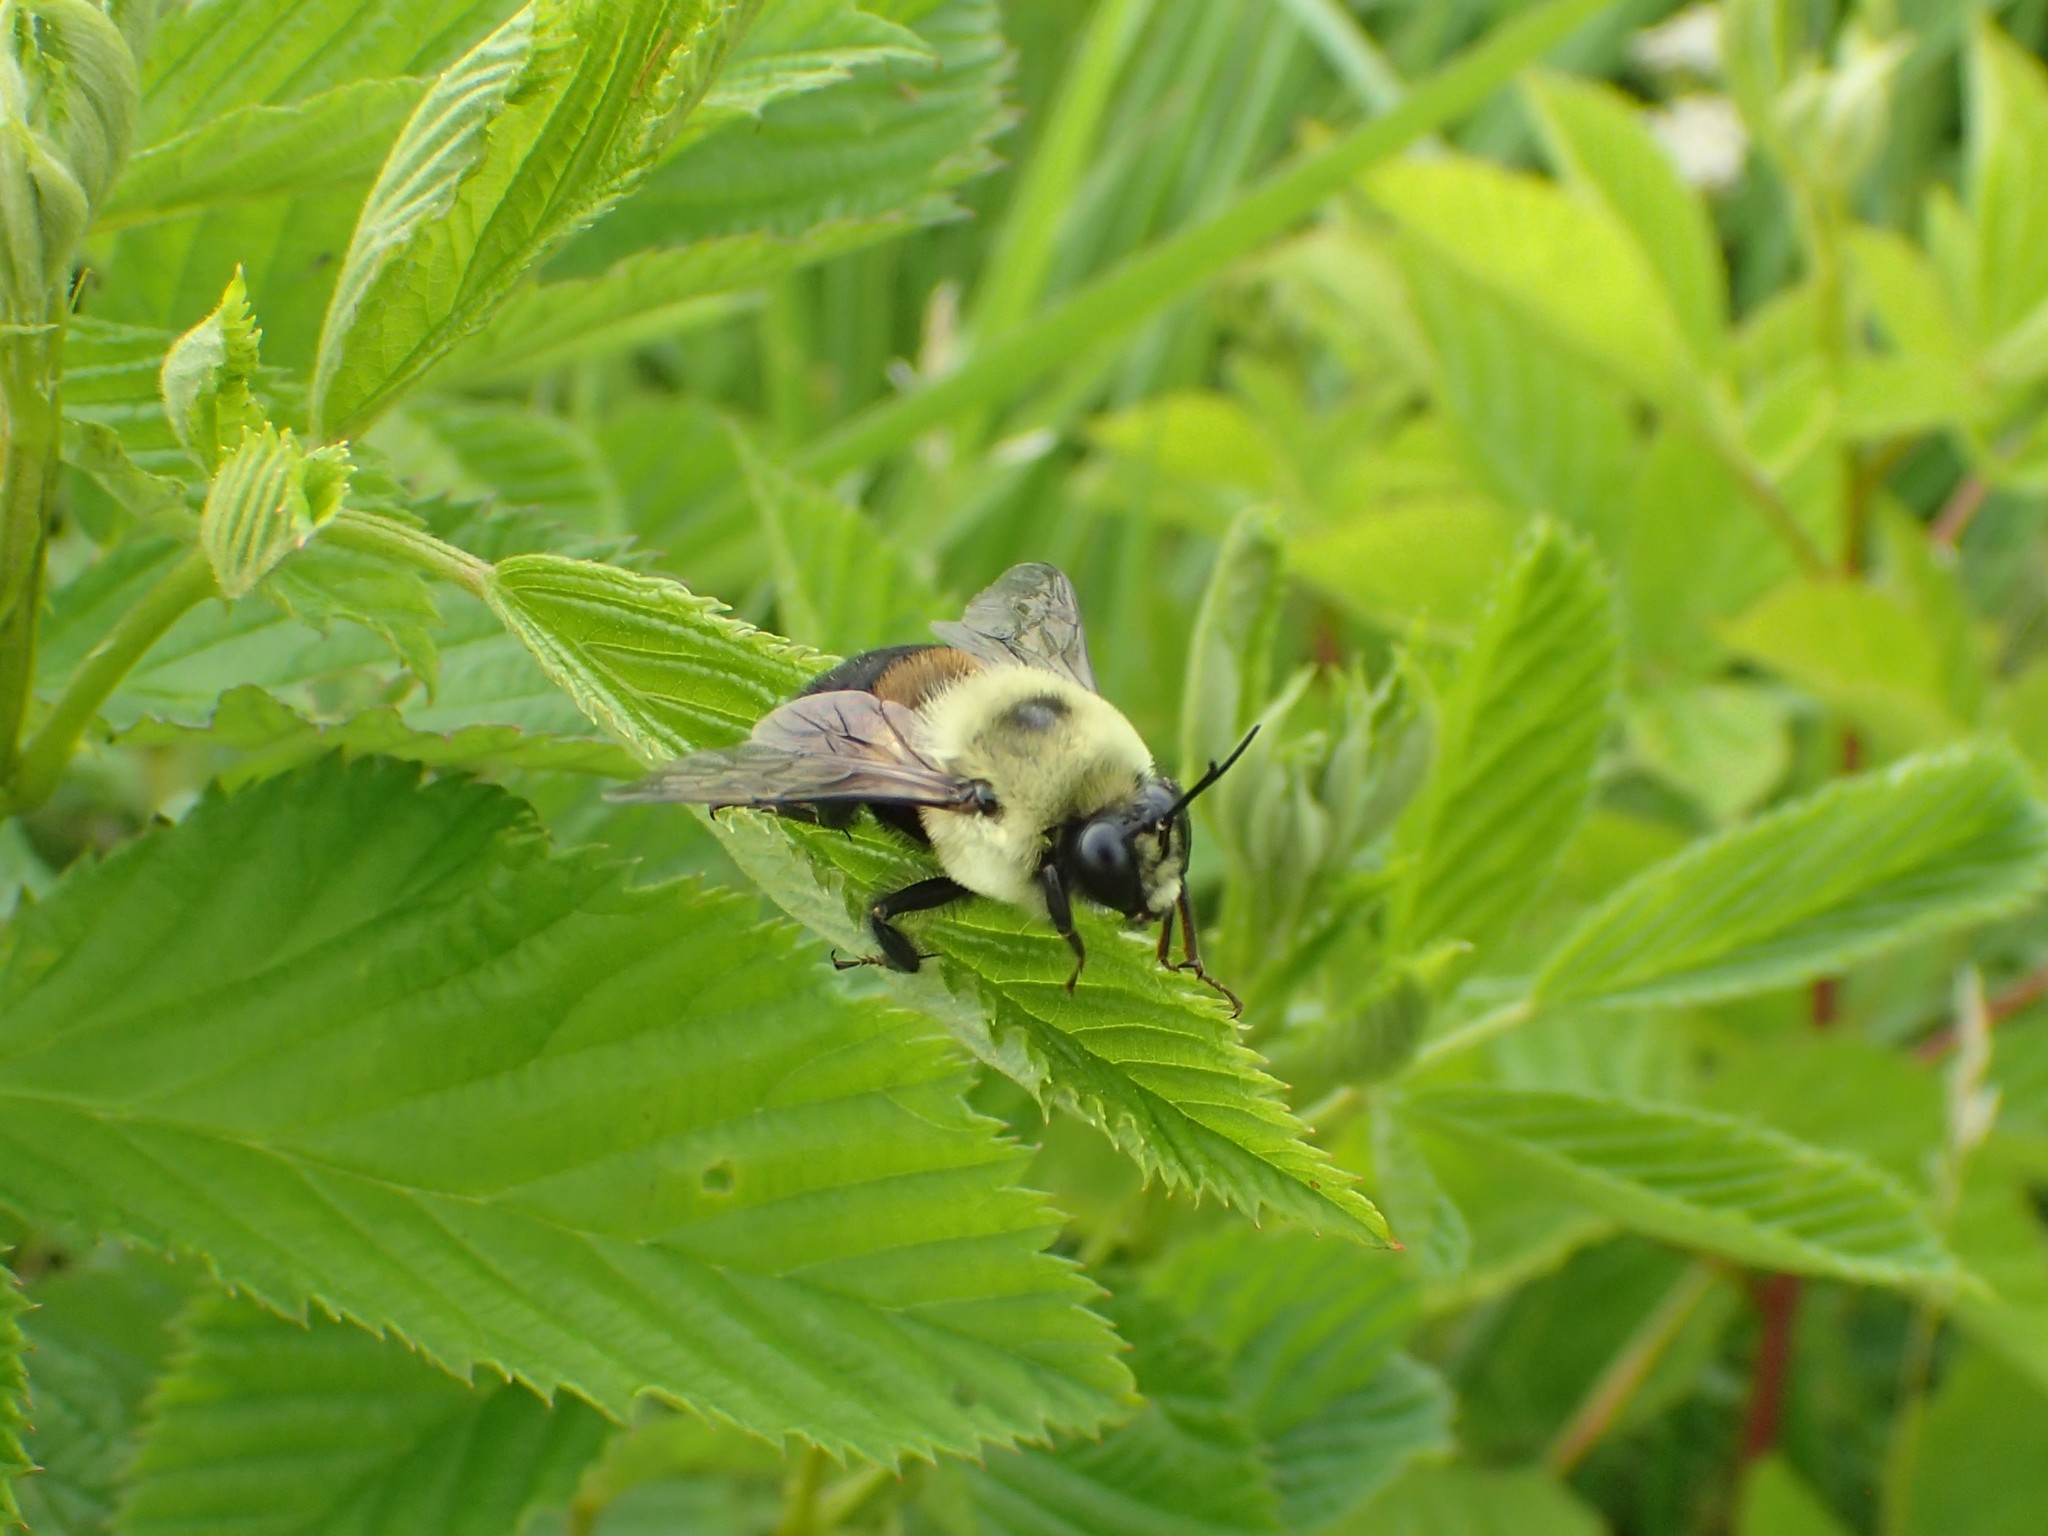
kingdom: Animalia
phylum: Arthropoda
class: Insecta
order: Hymenoptera
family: Apidae
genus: Bombus
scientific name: Bombus griseocollis
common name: Brown-belted bumble bee
